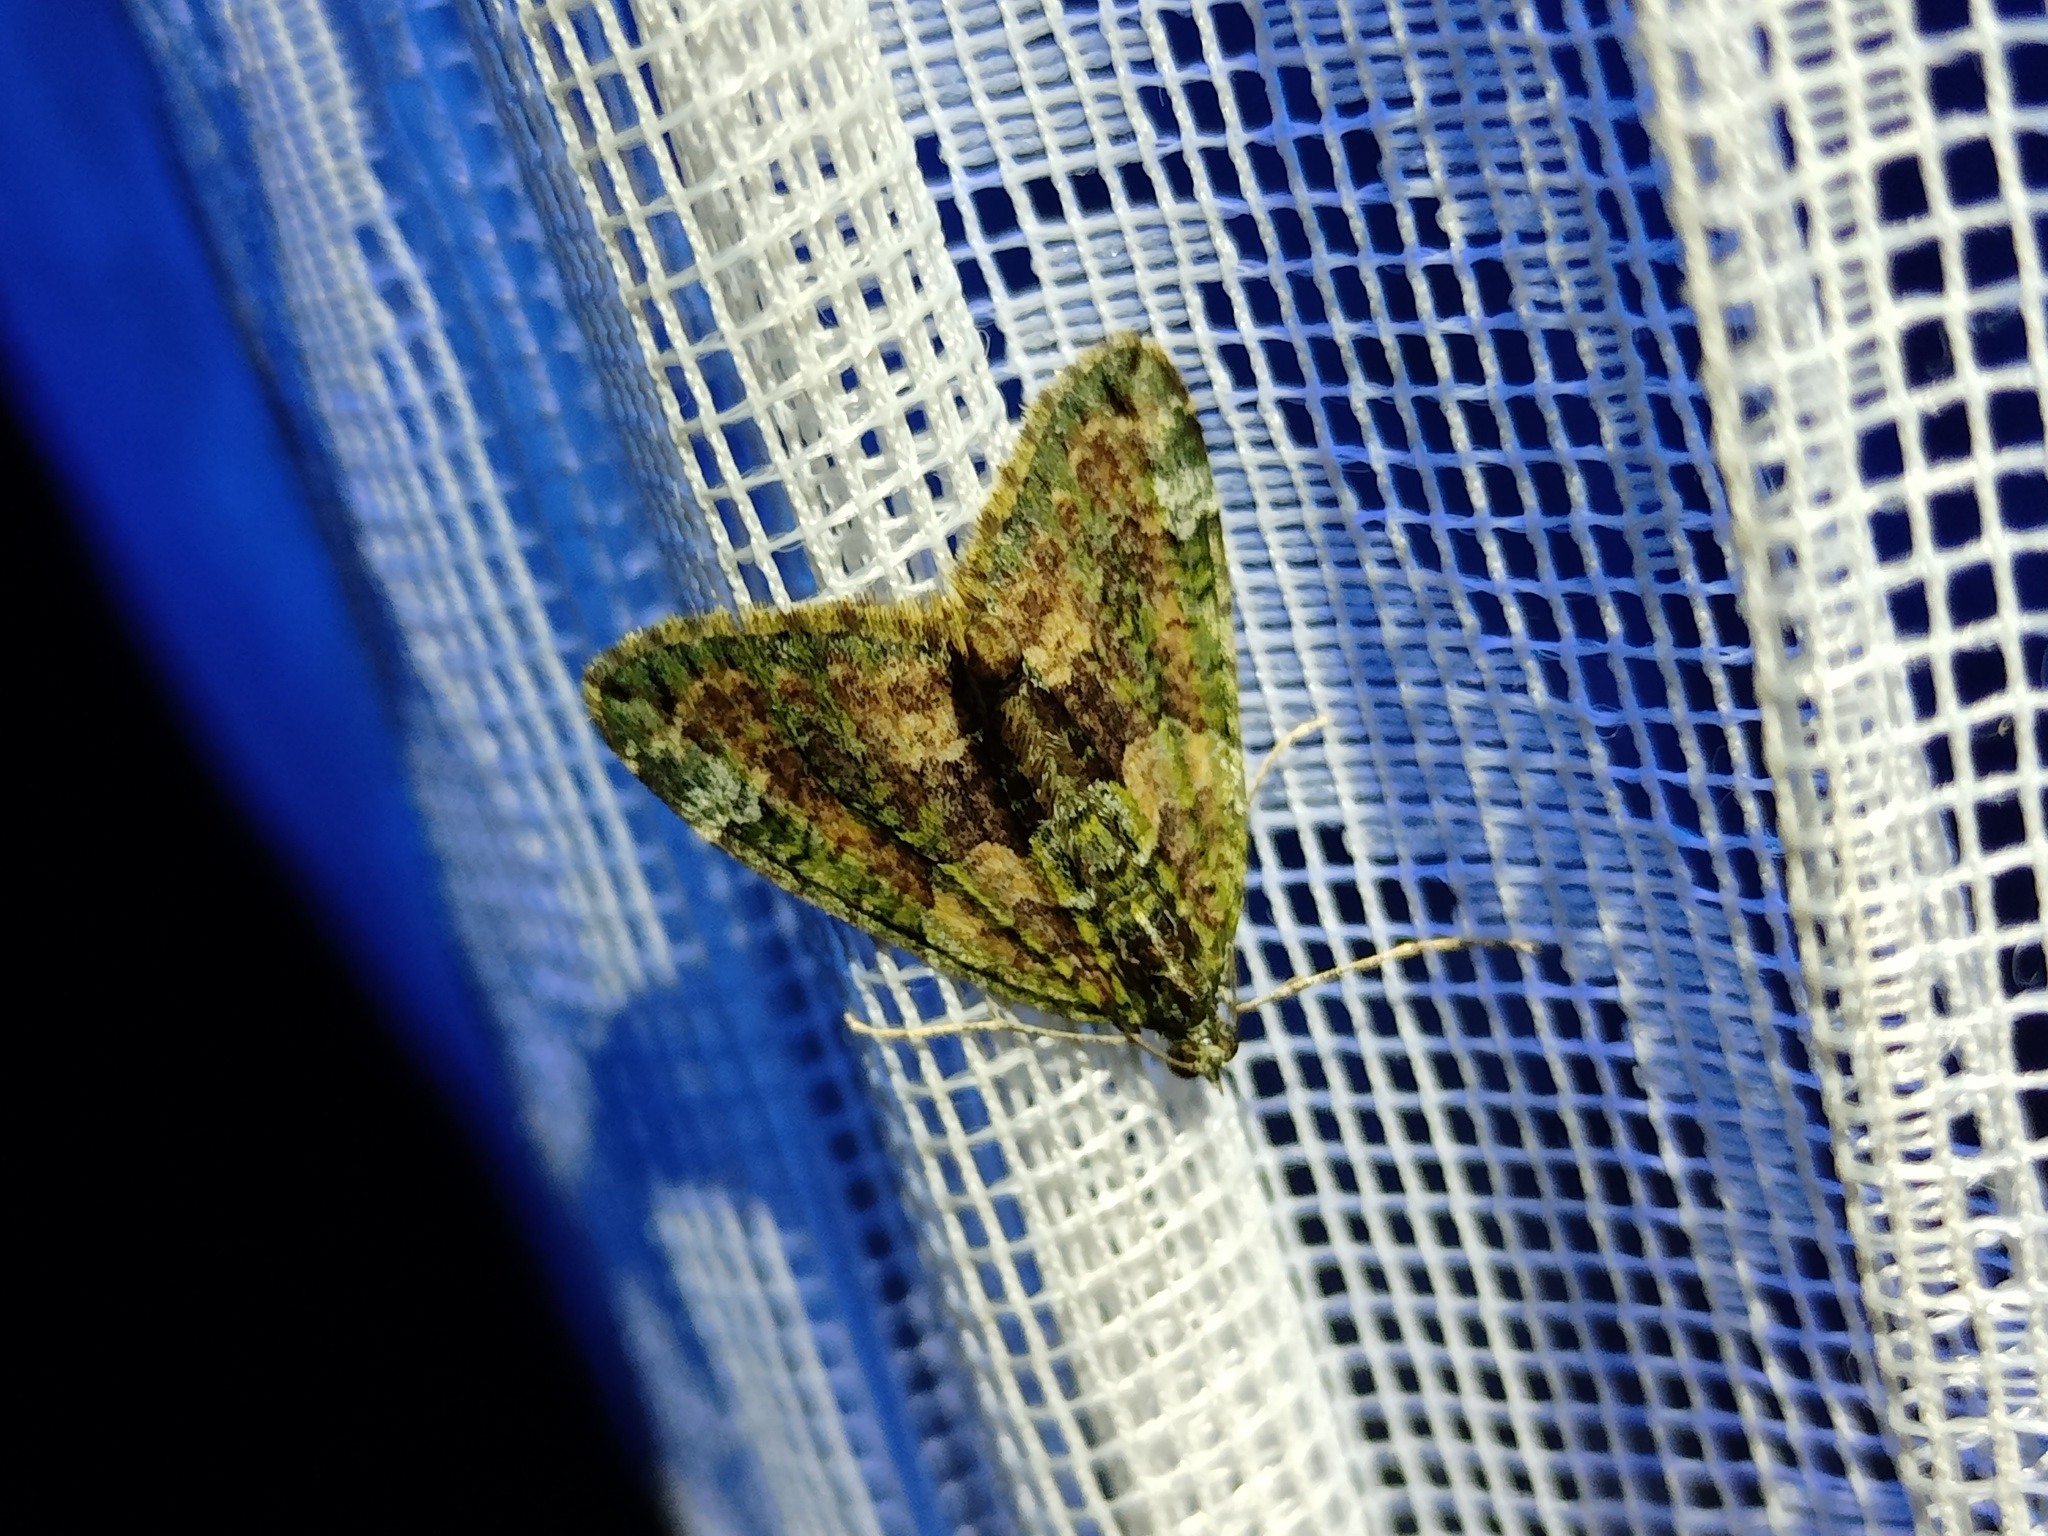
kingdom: Animalia
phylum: Arthropoda
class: Insecta
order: Lepidoptera
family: Geometridae
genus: Chloroclysta
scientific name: Chloroclysta siterata
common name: Red-green carpet
